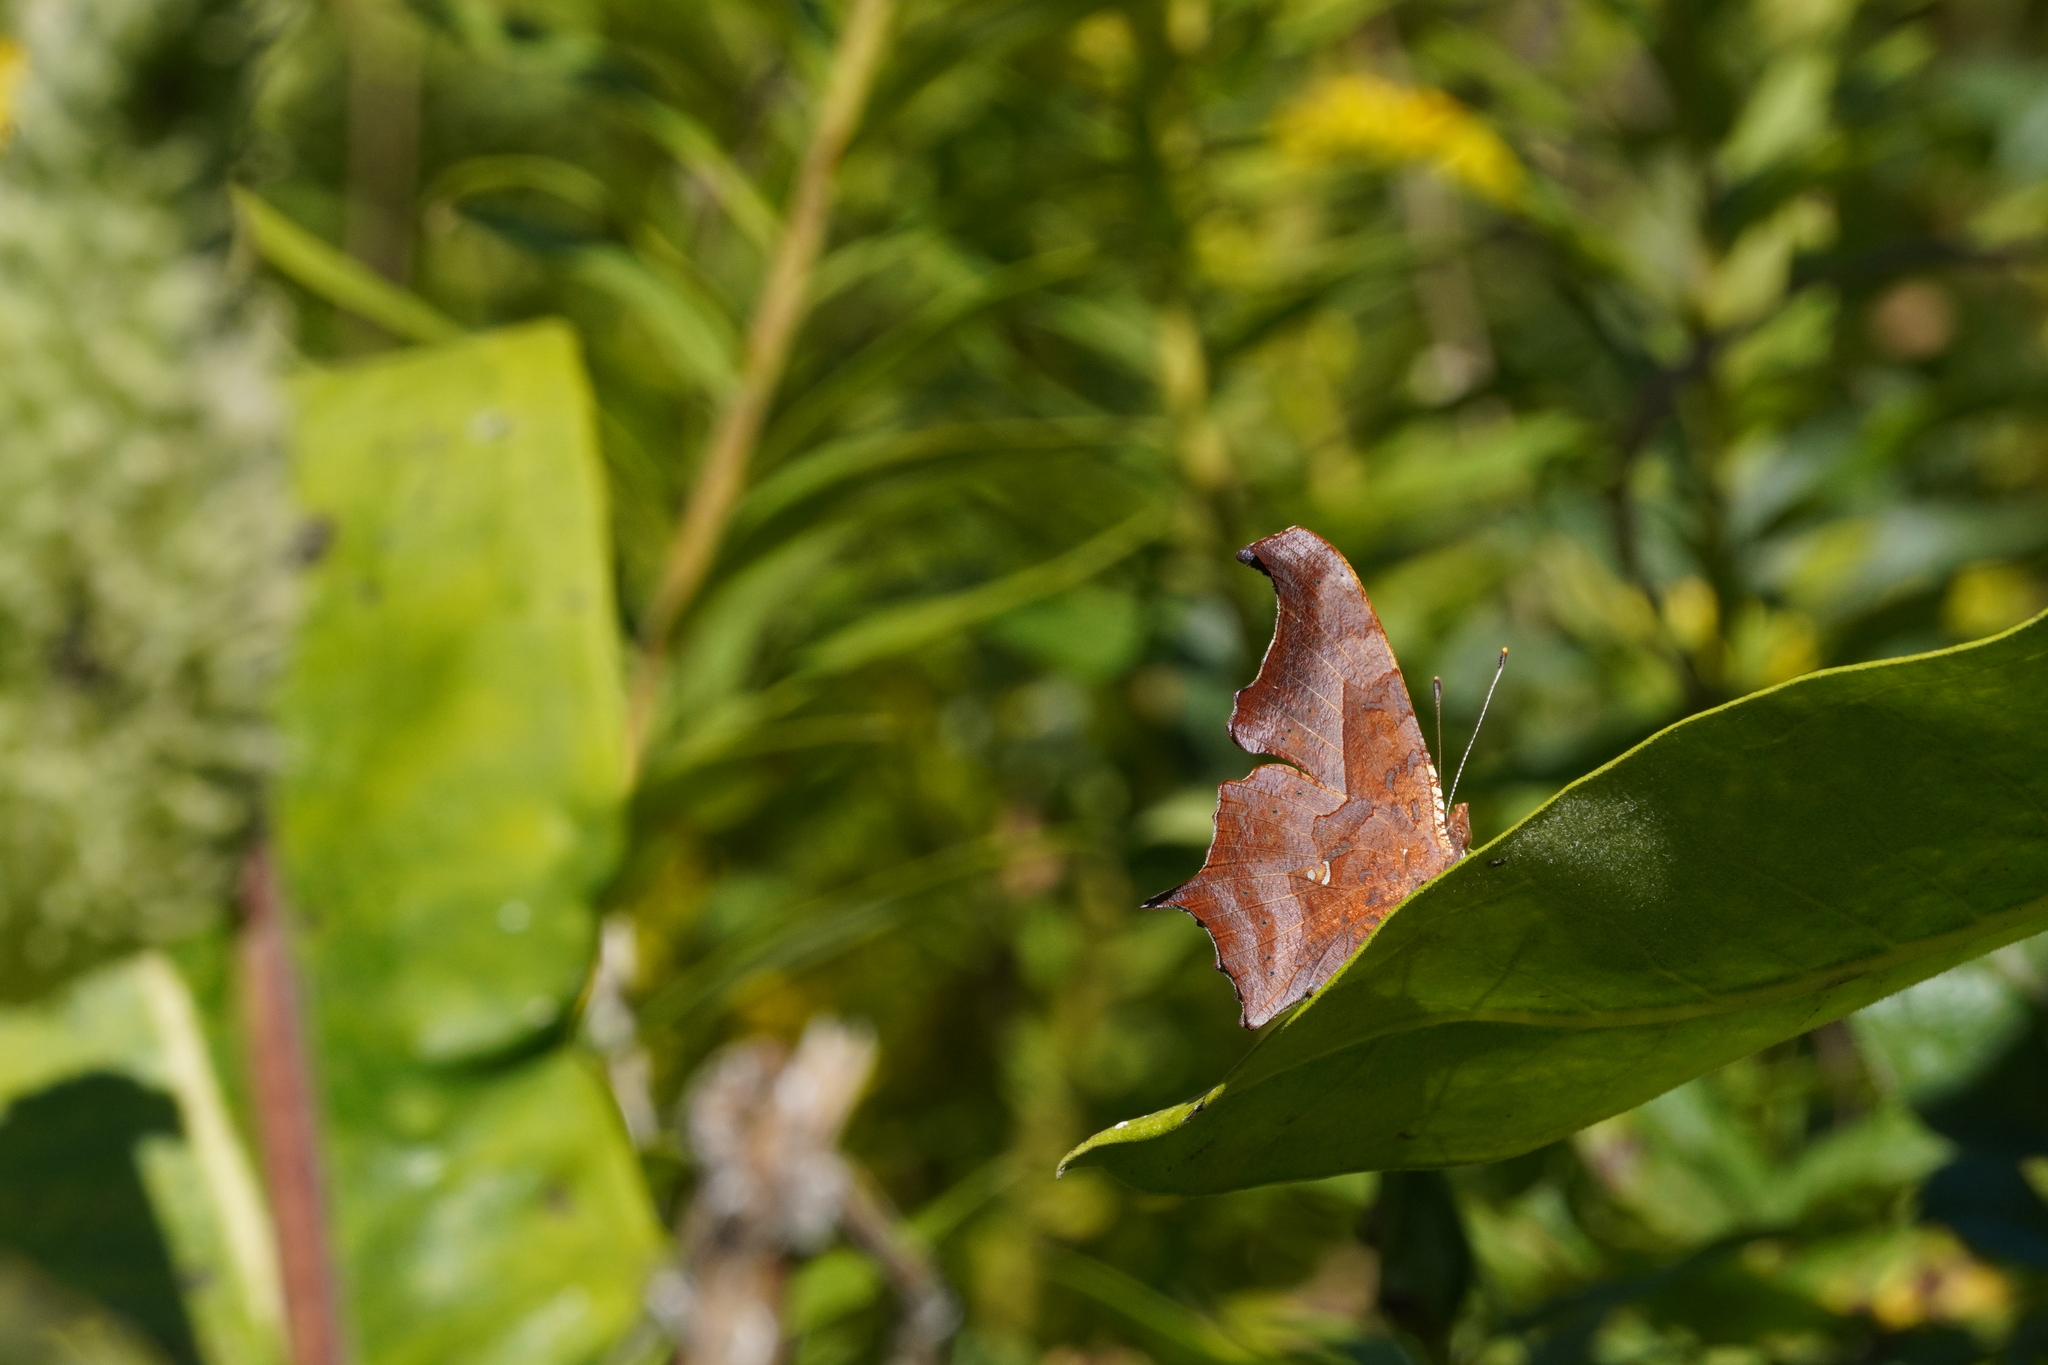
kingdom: Animalia
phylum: Arthropoda
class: Insecta
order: Lepidoptera
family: Nymphalidae
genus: Polygonia
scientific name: Polygonia interrogationis
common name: Question mark
